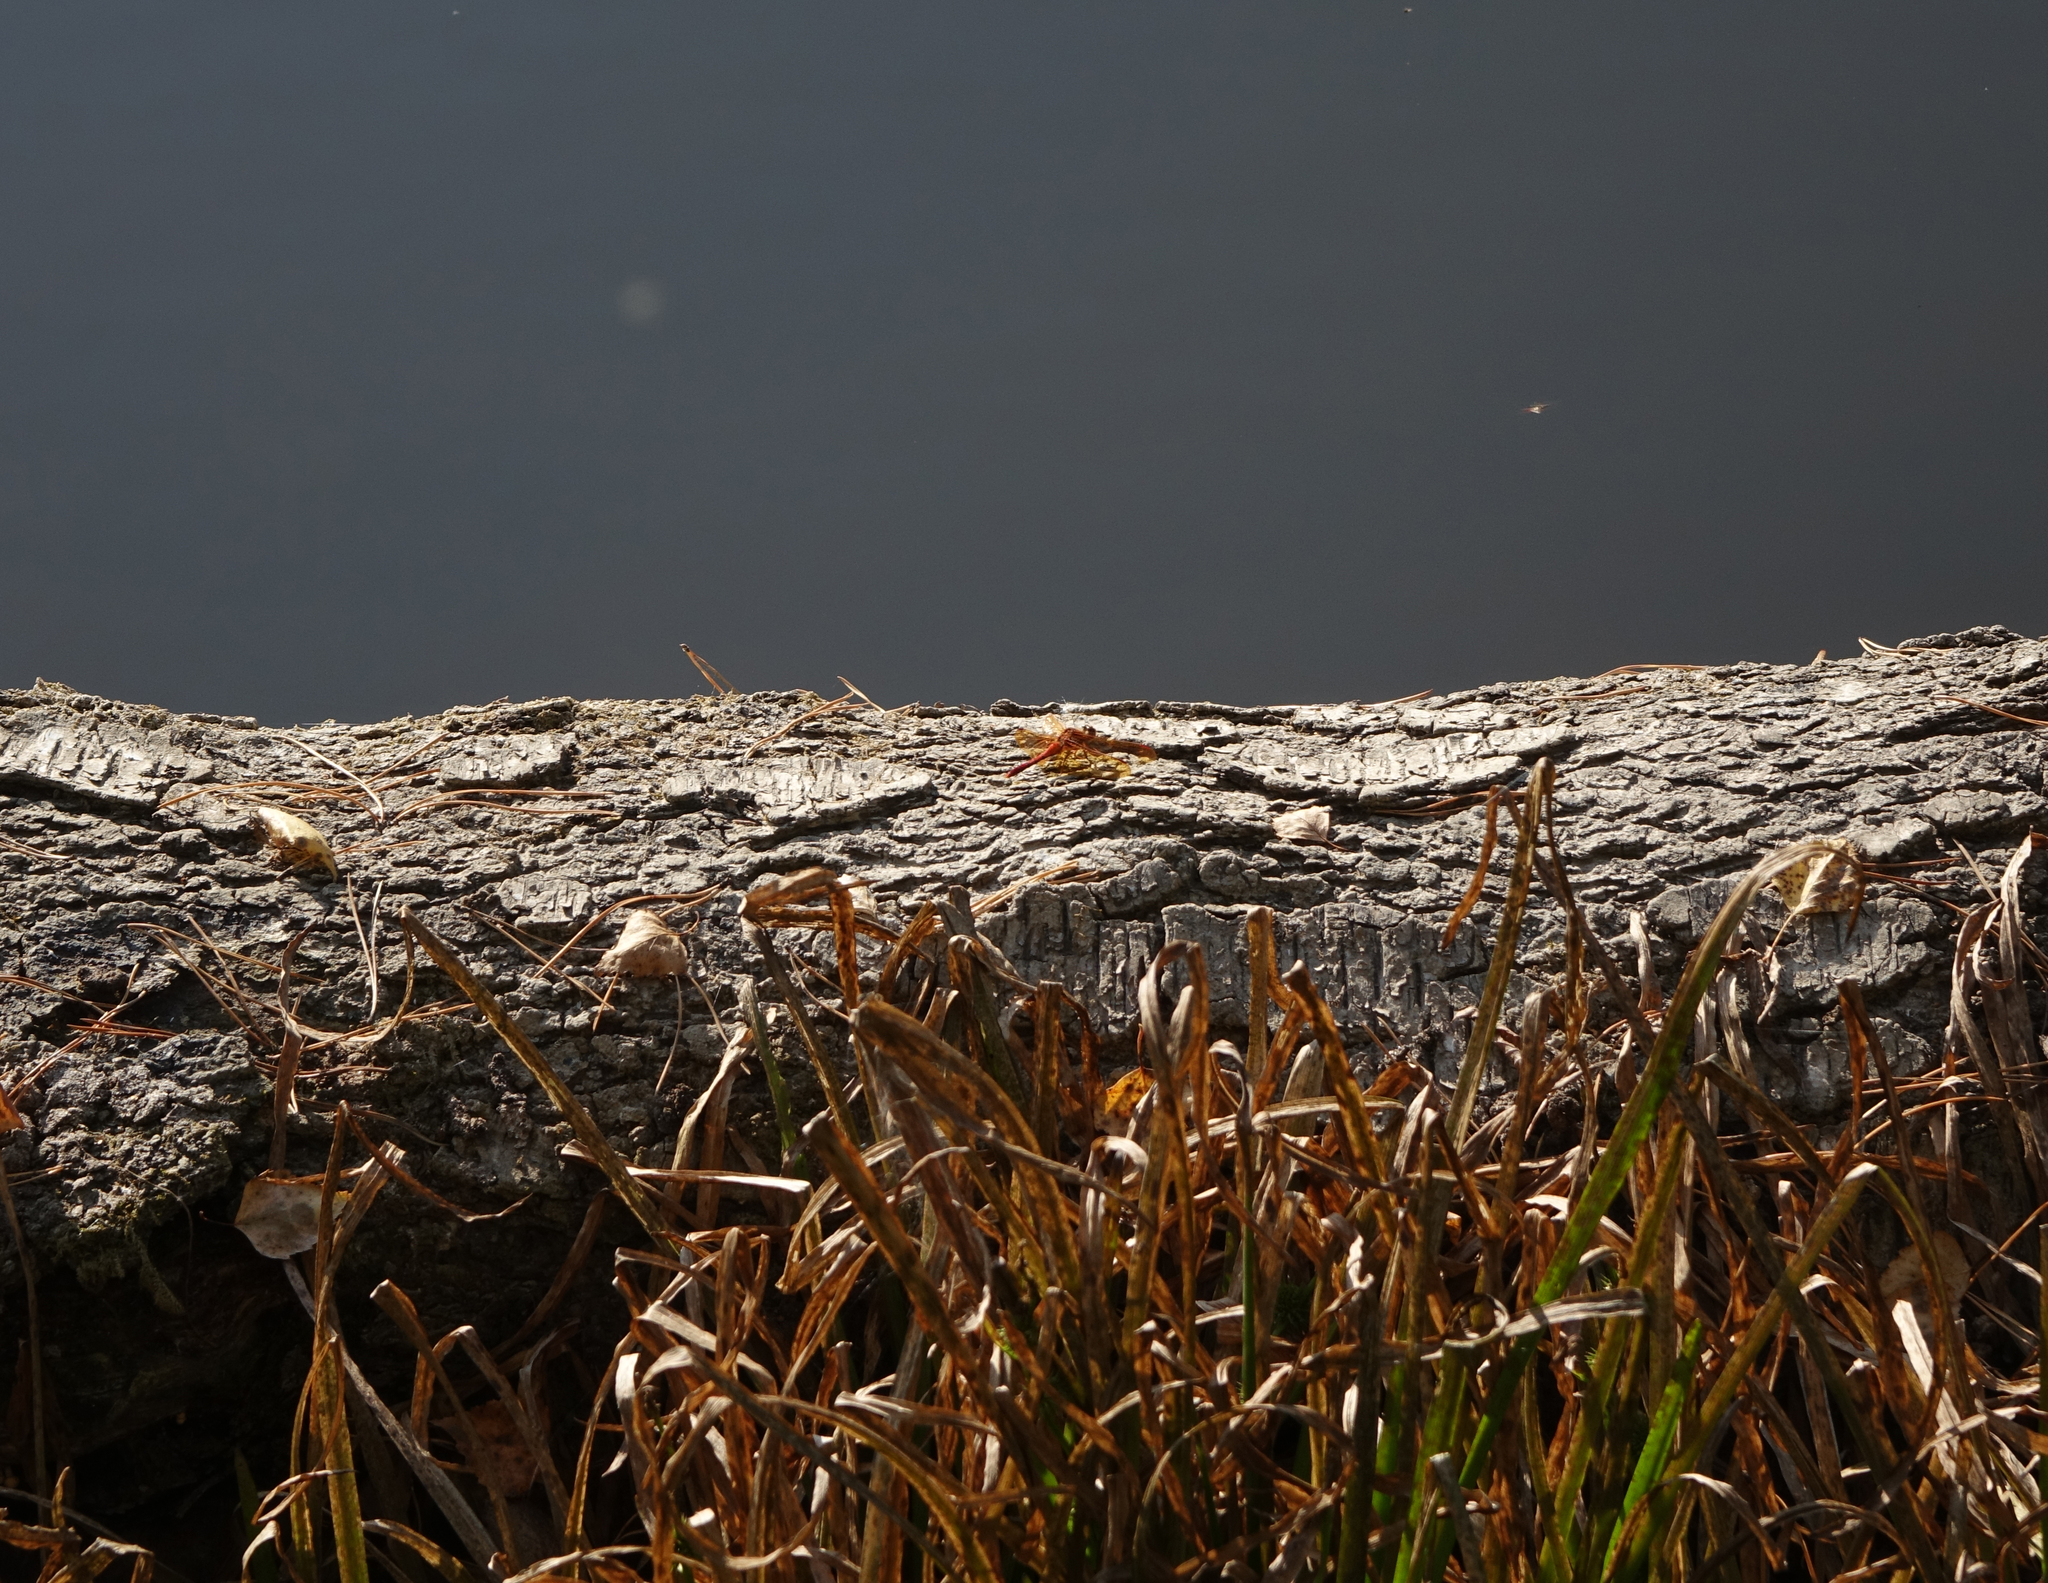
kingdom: Animalia
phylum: Arthropoda
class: Insecta
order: Odonata
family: Libellulidae
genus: Sympetrum
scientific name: Sympetrum croceolum
